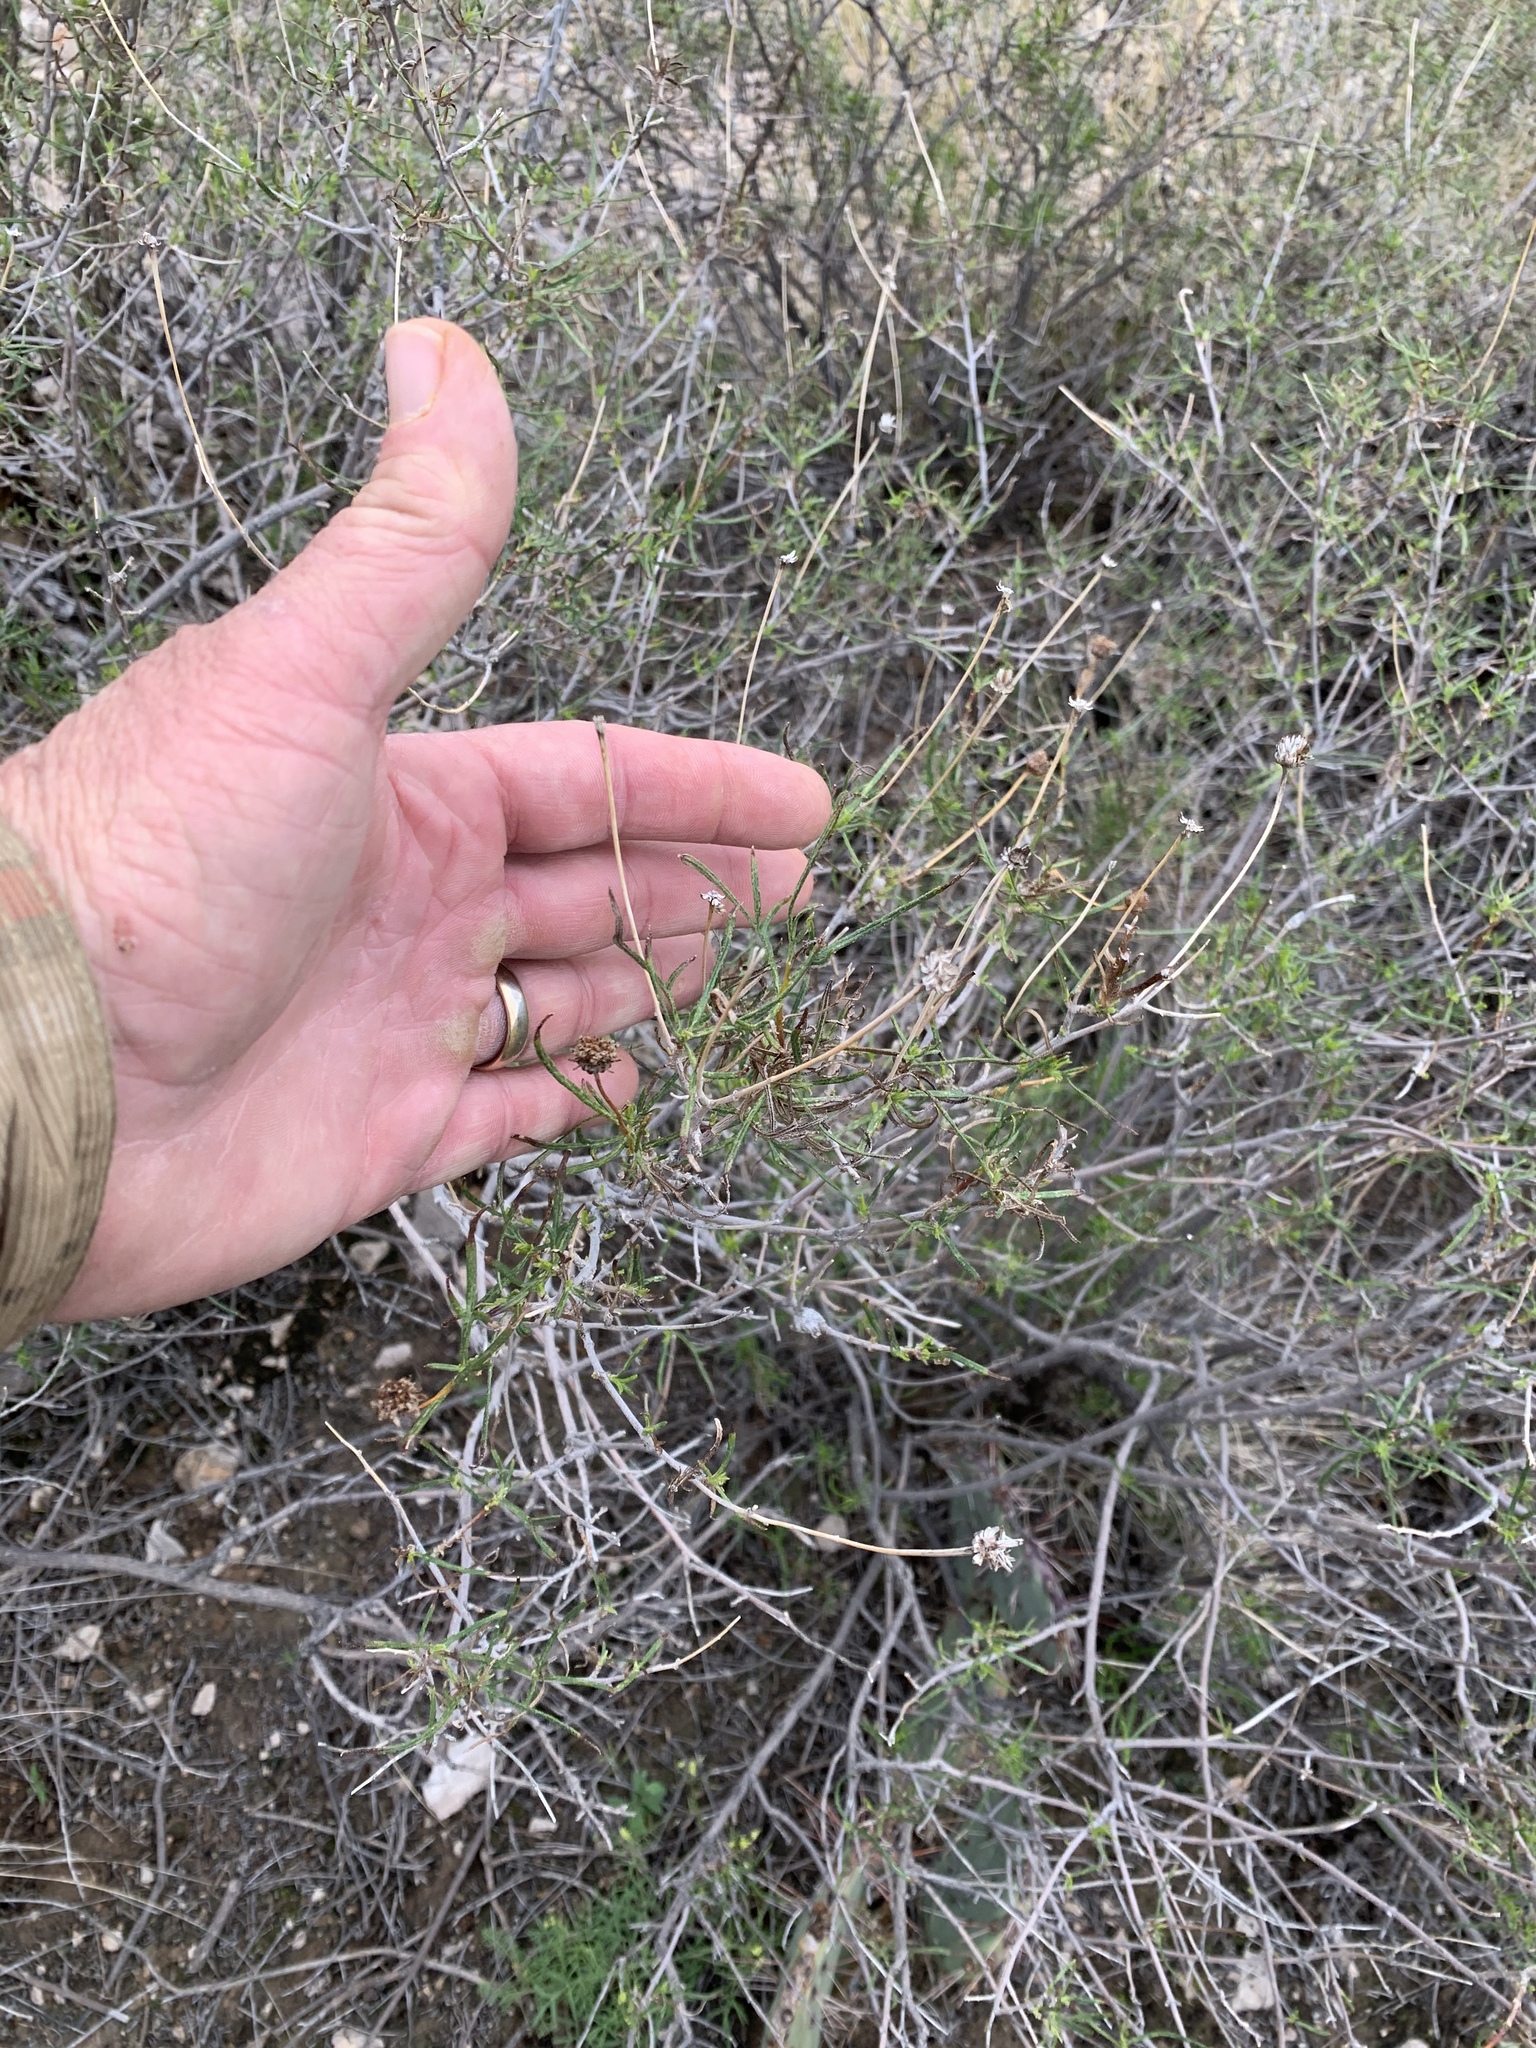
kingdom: Plantae
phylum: Tracheophyta
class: Magnoliopsida
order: Asterales
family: Asteraceae
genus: Sidneya
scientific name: Sidneya tenuifolia
